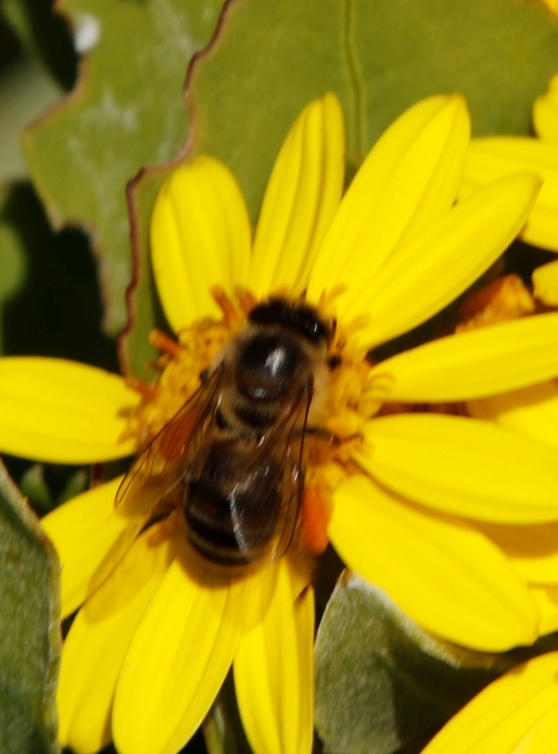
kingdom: Animalia
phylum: Arthropoda
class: Insecta
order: Hymenoptera
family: Apidae
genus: Apis
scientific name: Apis mellifera
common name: Honey bee
